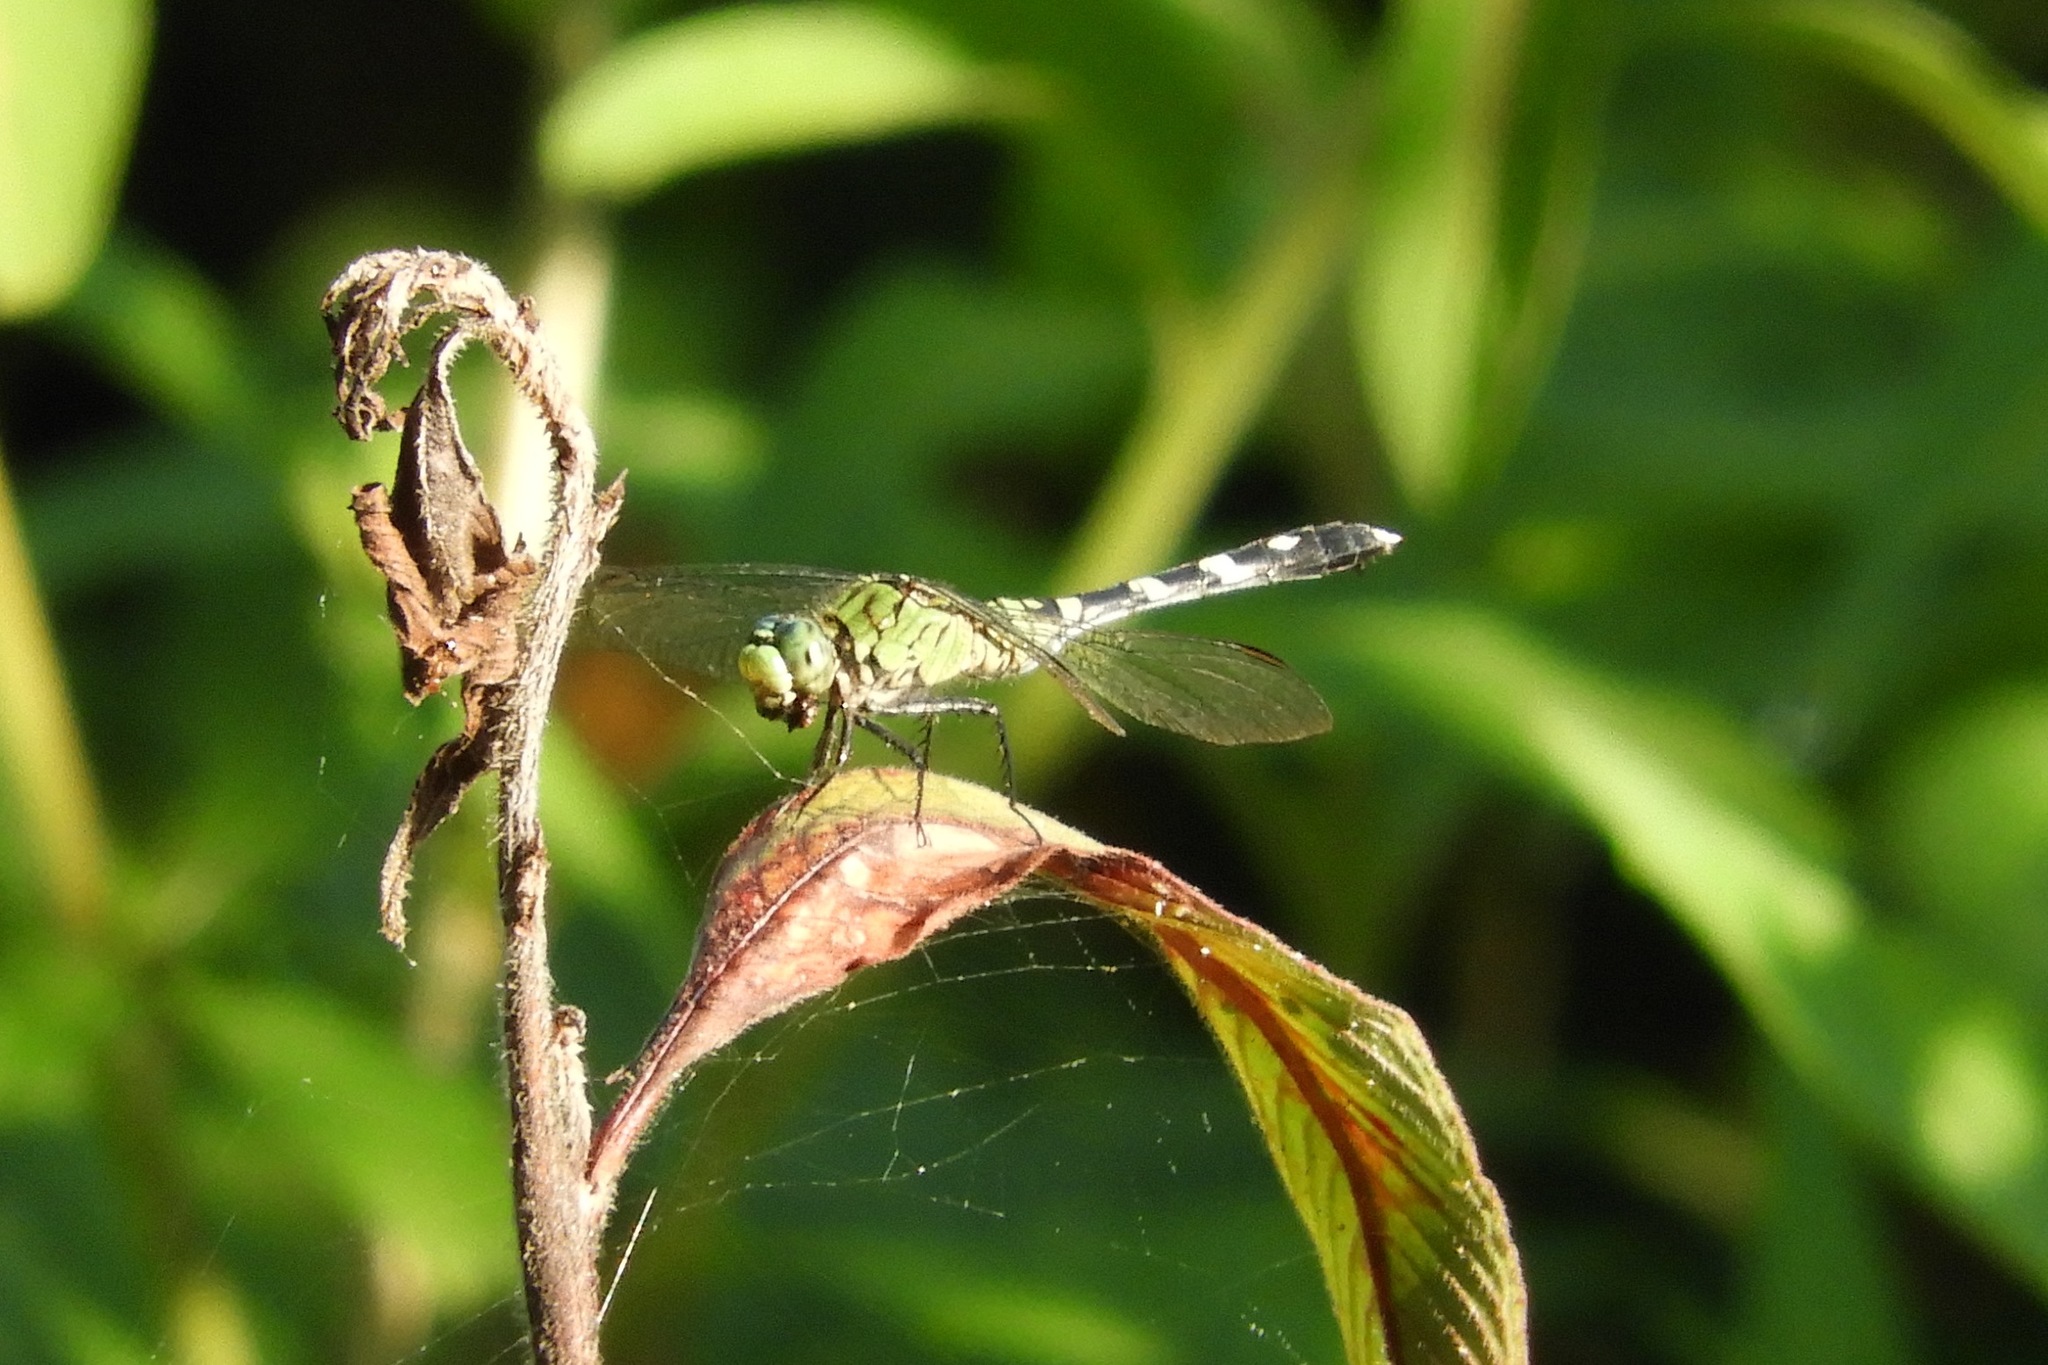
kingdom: Animalia
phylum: Arthropoda
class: Insecta
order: Odonata
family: Libellulidae
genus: Erythemis
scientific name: Erythemis simplicicollis
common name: Eastern pondhawk
